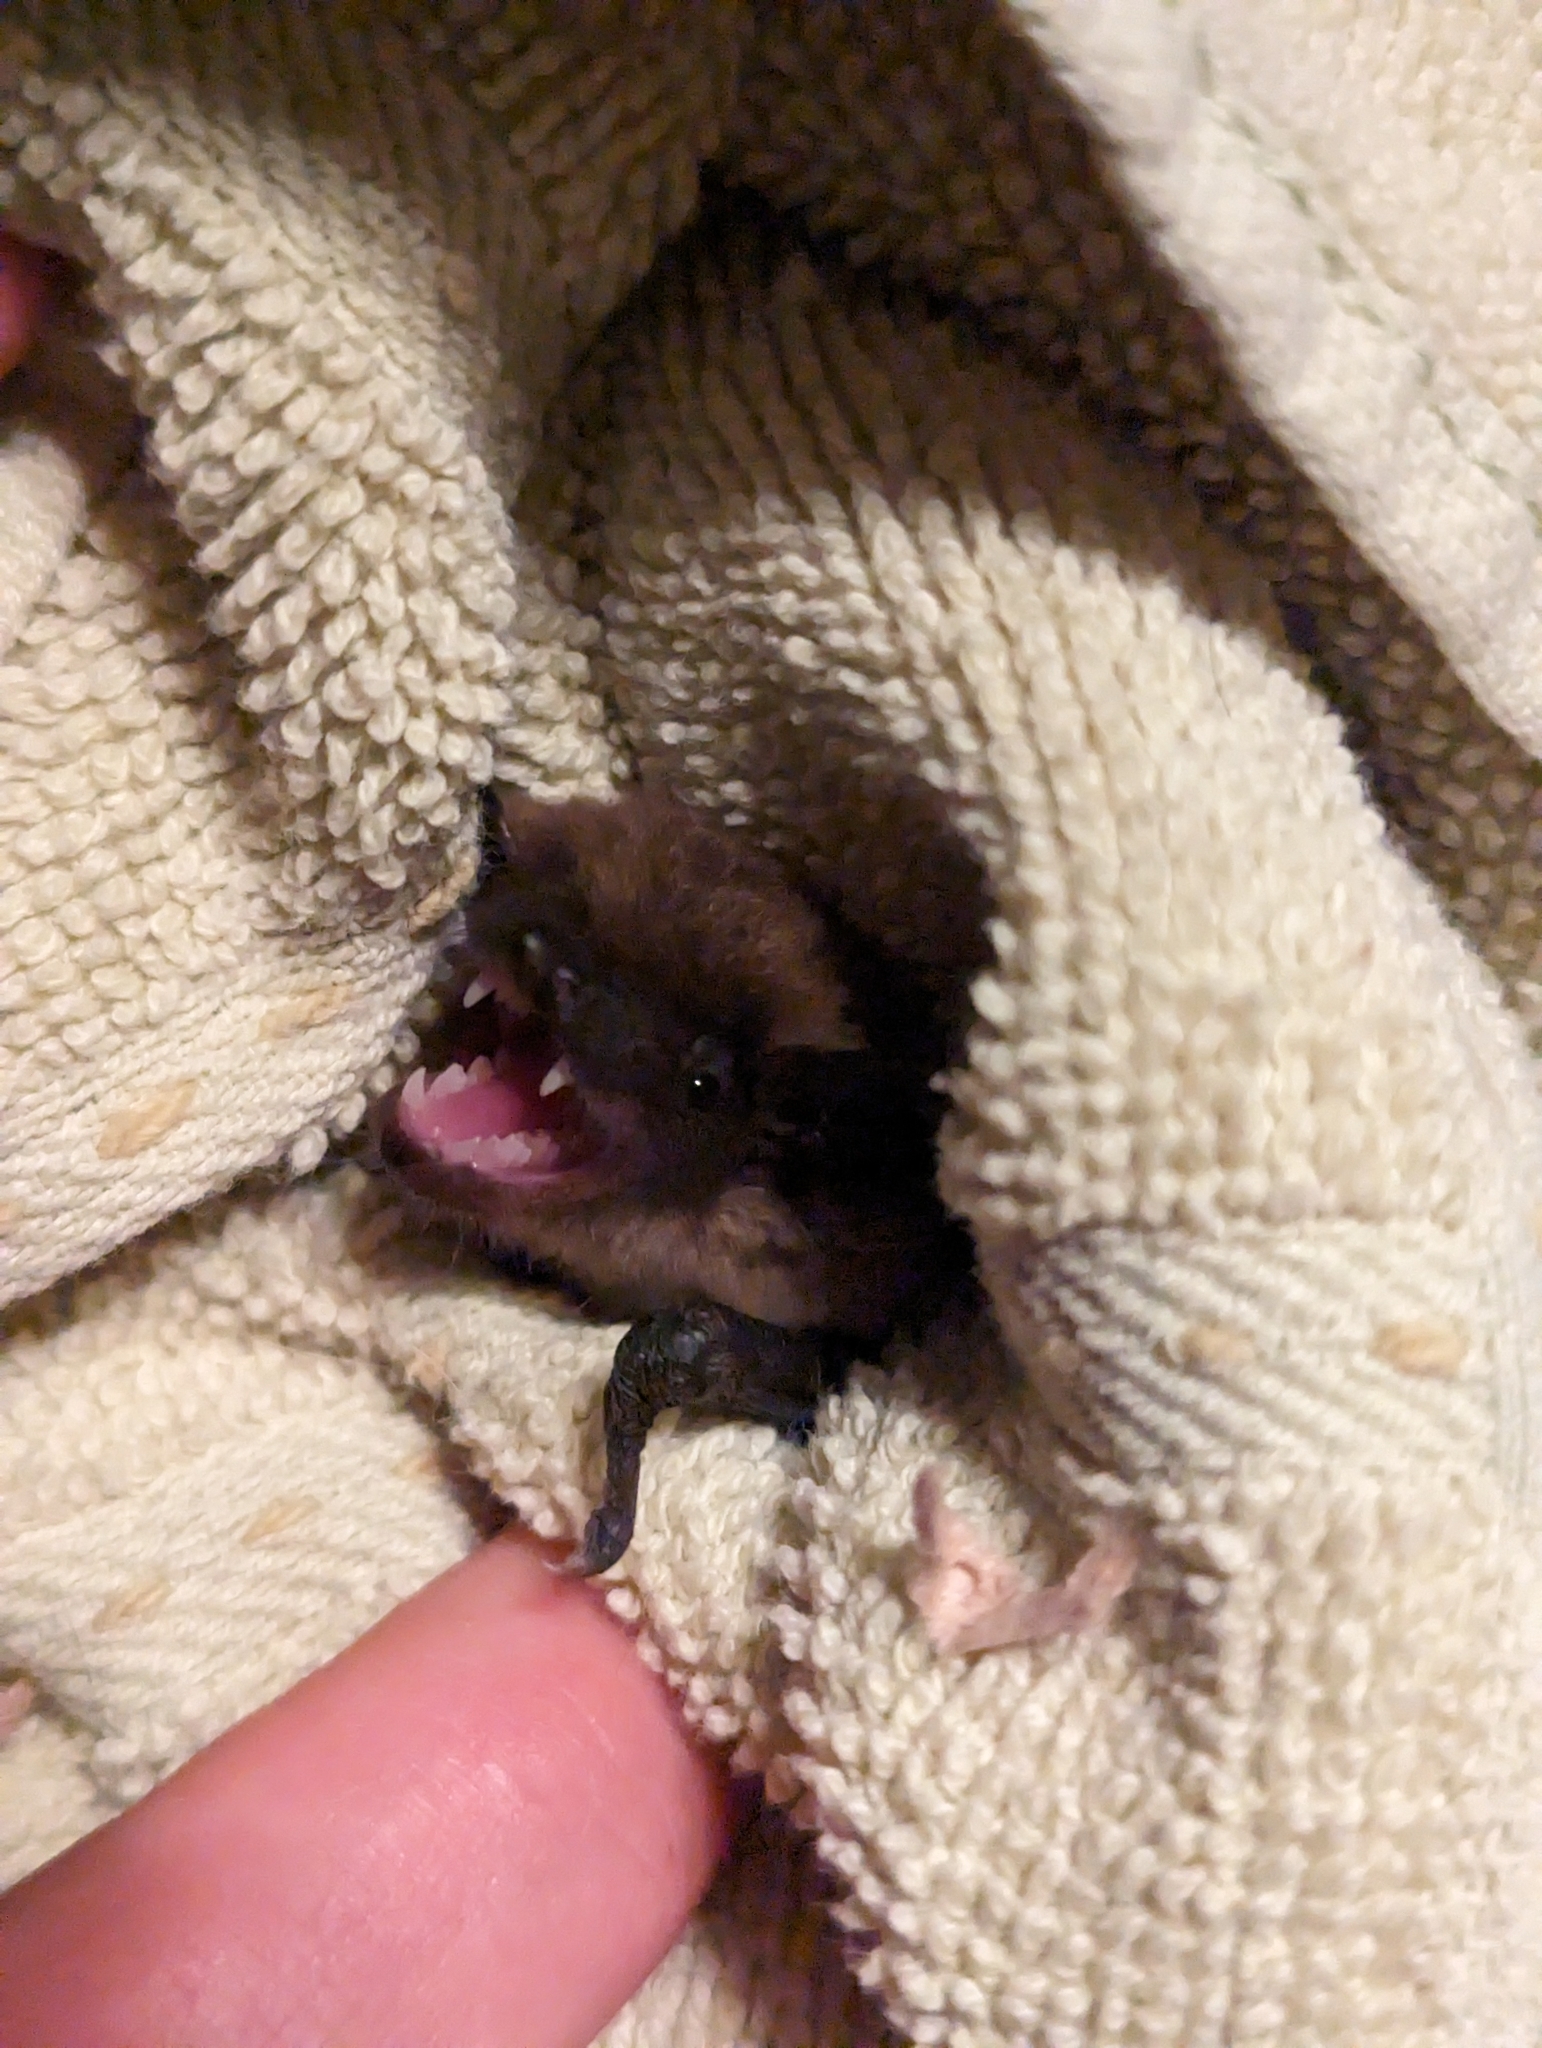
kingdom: Animalia
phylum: Chordata
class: Mammalia
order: Chiroptera
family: Vespertilionidae
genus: Eptesicus
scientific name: Eptesicus fuscus
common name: Big brown bat
